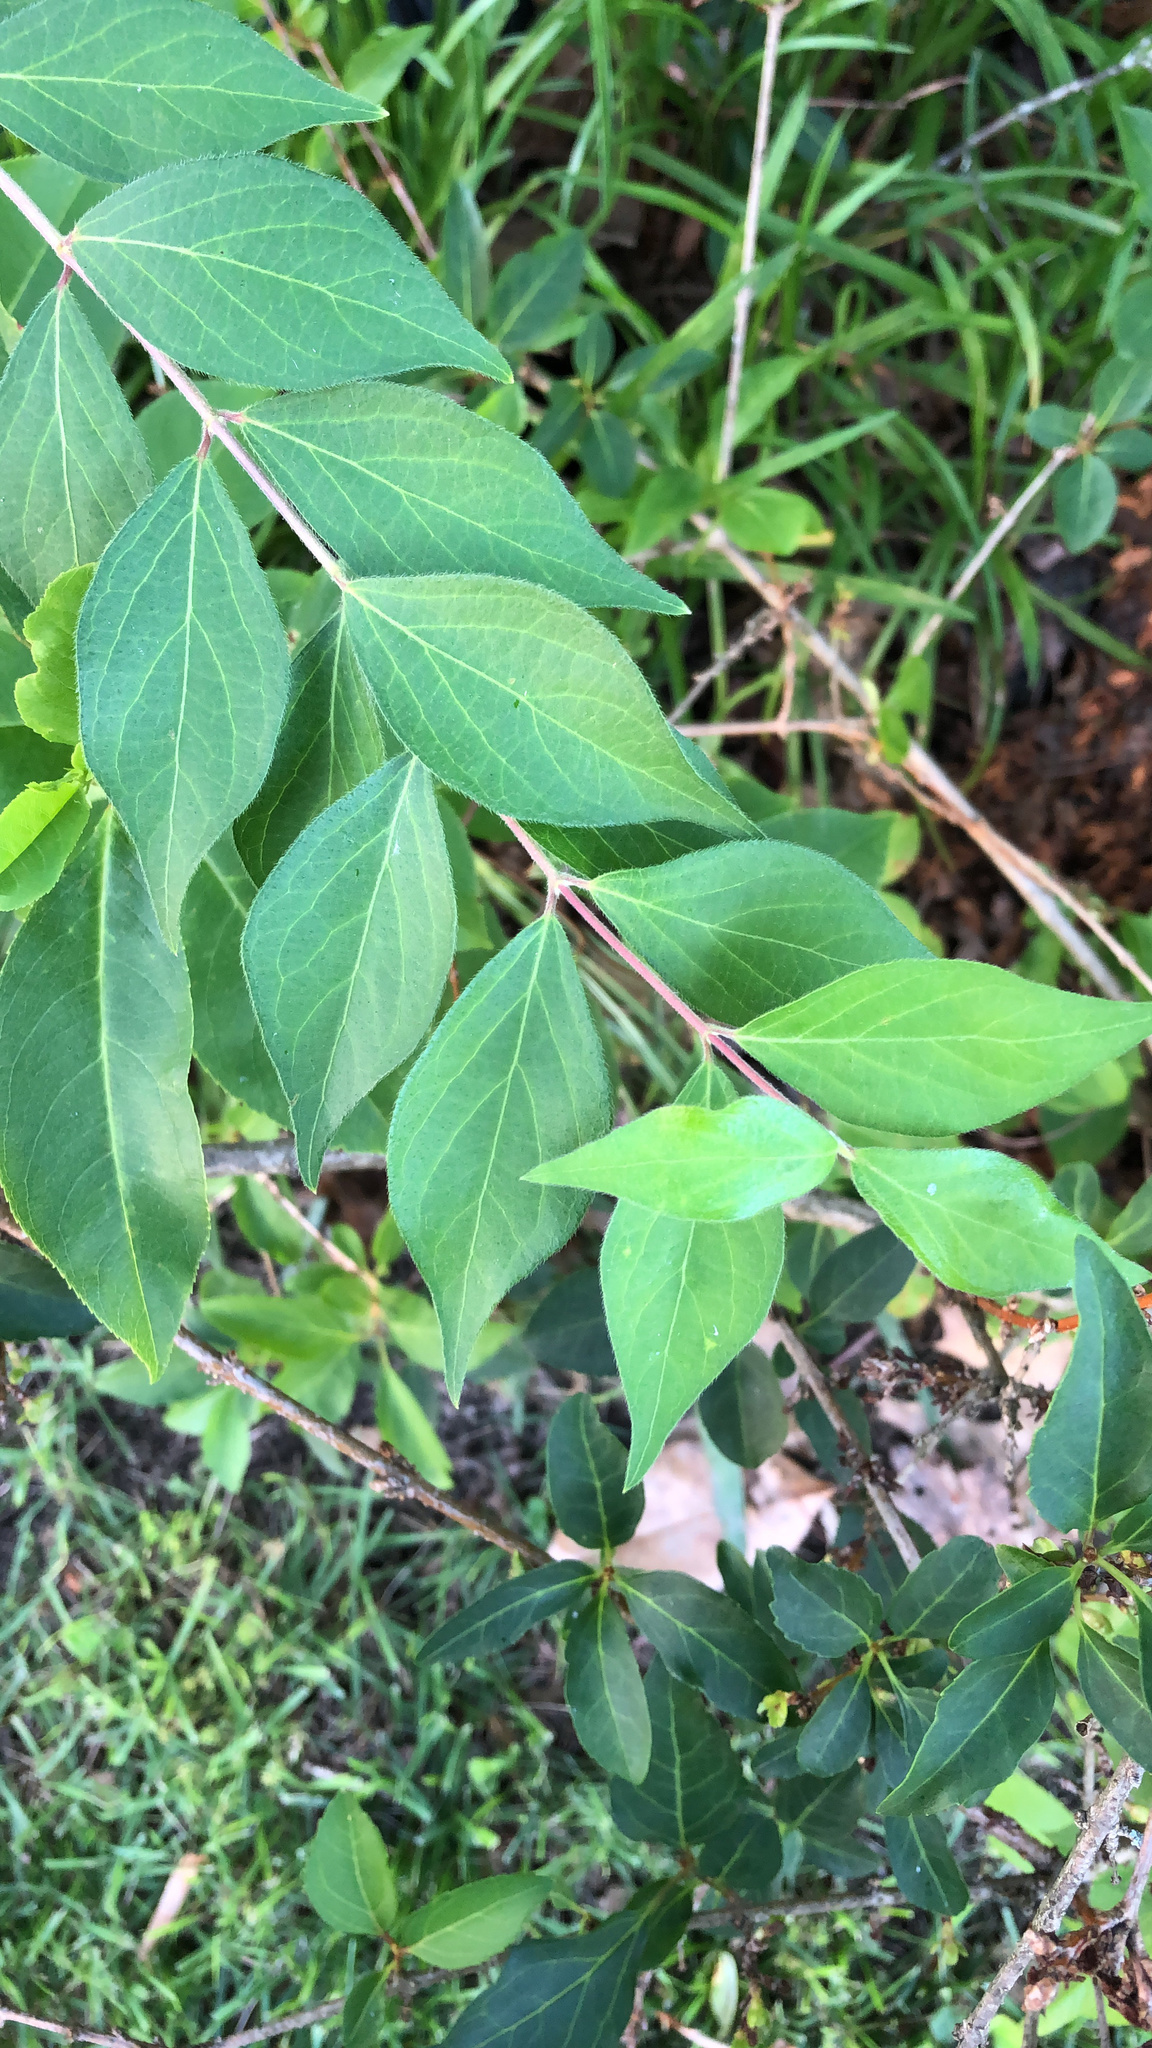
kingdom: Plantae
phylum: Tracheophyta
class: Magnoliopsida
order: Dipsacales
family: Caprifoliaceae
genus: Lonicera
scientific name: Lonicera maackii
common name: Amur honeysuckle
